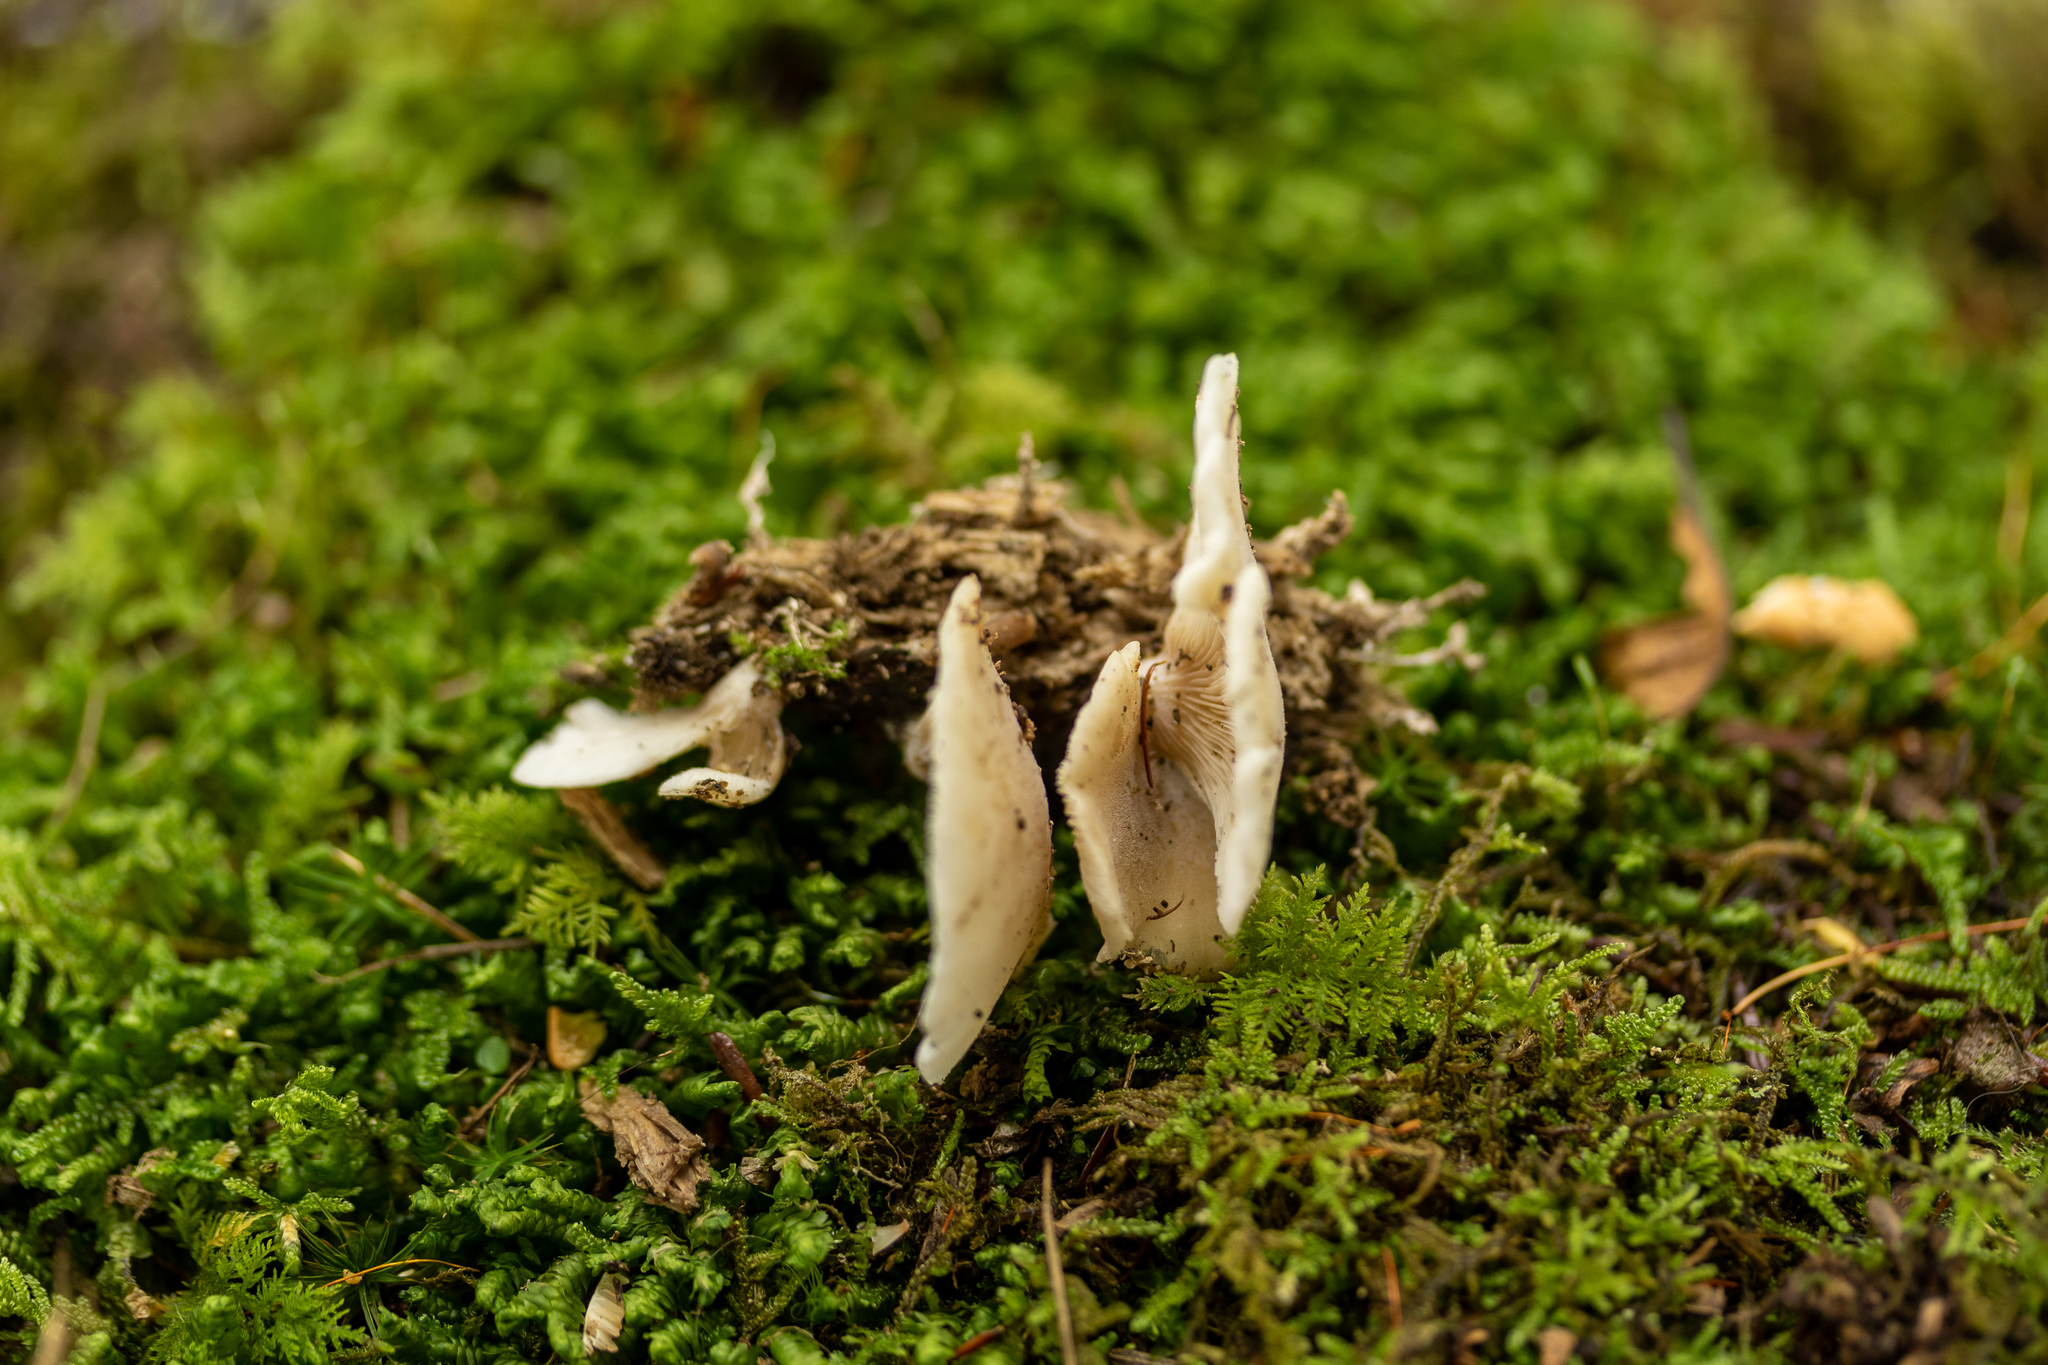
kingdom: Fungi
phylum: Basidiomycota
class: Agaricomycetes
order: Agaricales
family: Pleurotaceae
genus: Hohenbuehelia
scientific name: Hohenbuehelia angustata
